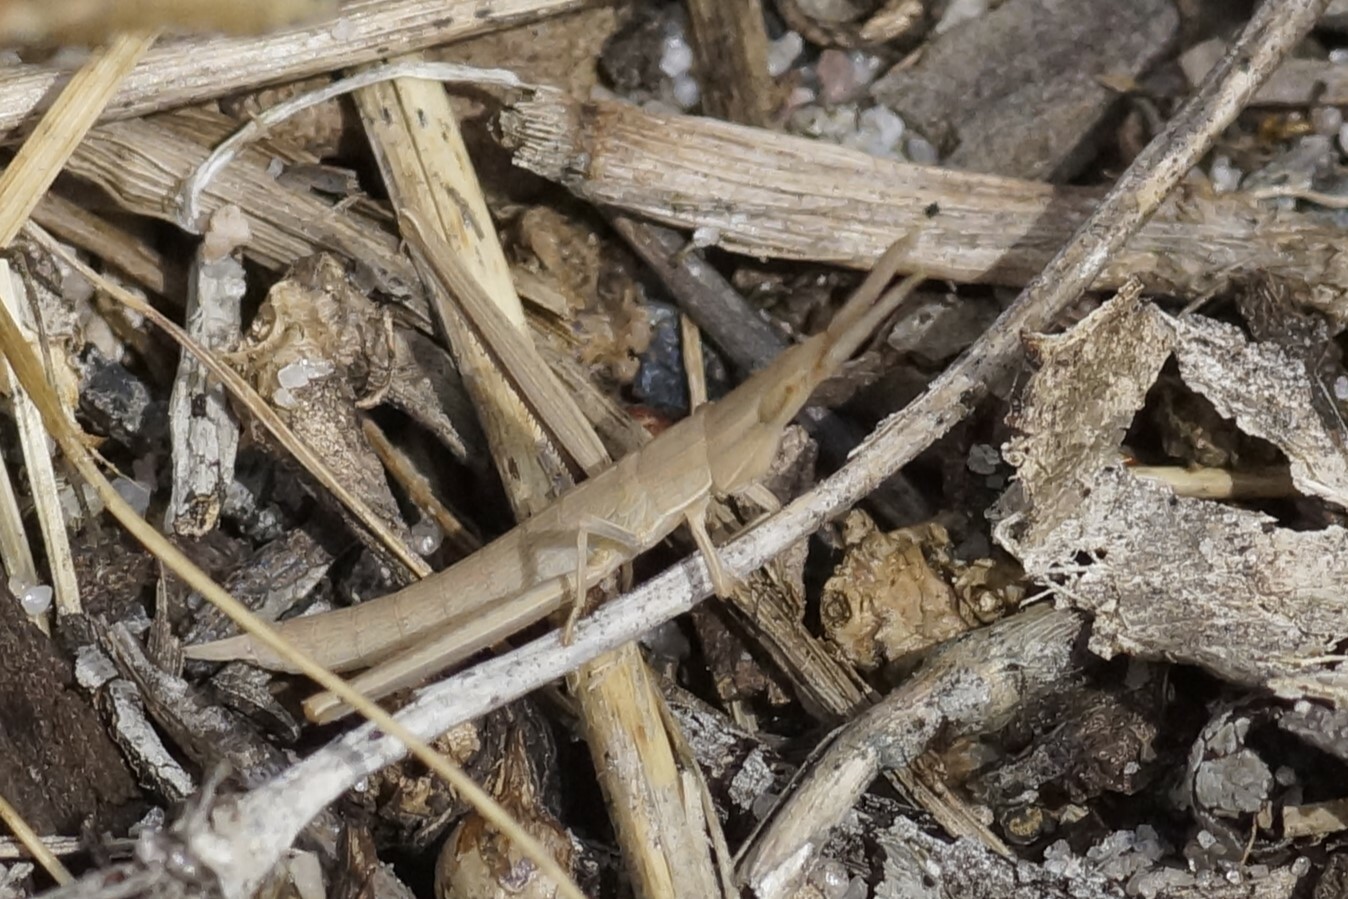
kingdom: Animalia
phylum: Arthropoda
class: Insecta
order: Orthoptera
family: Acrididae
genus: Acrida
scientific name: Acrida conica
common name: Giant green slantface
